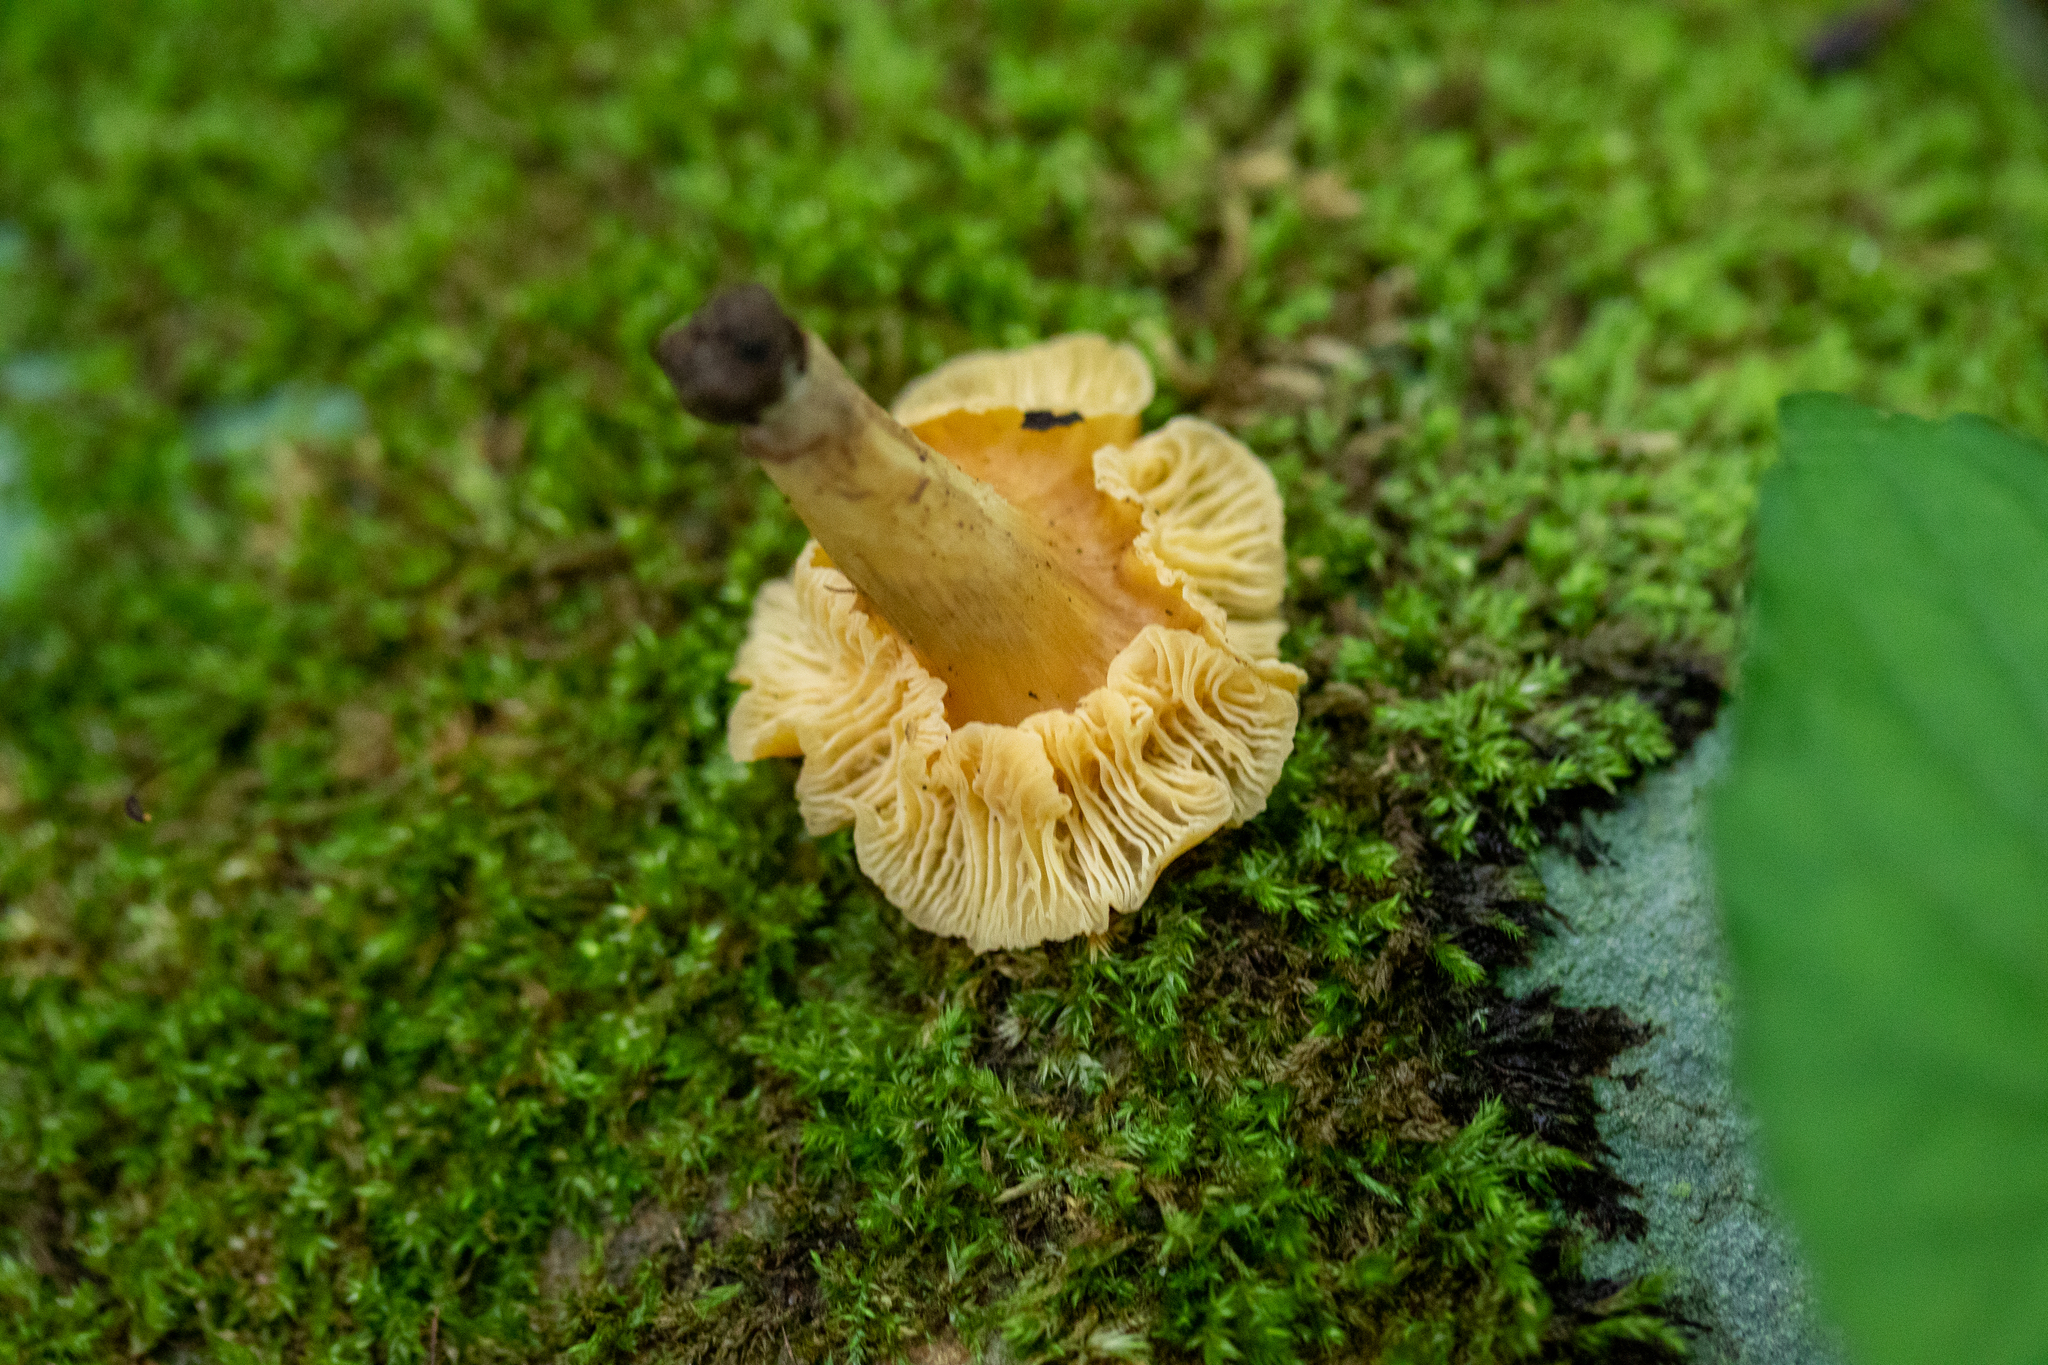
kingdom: Fungi
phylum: Basidiomycota
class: Agaricomycetes
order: Cantharellales
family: Hydnaceae
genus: Cantharellus
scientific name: Cantharellus appalachiensis
